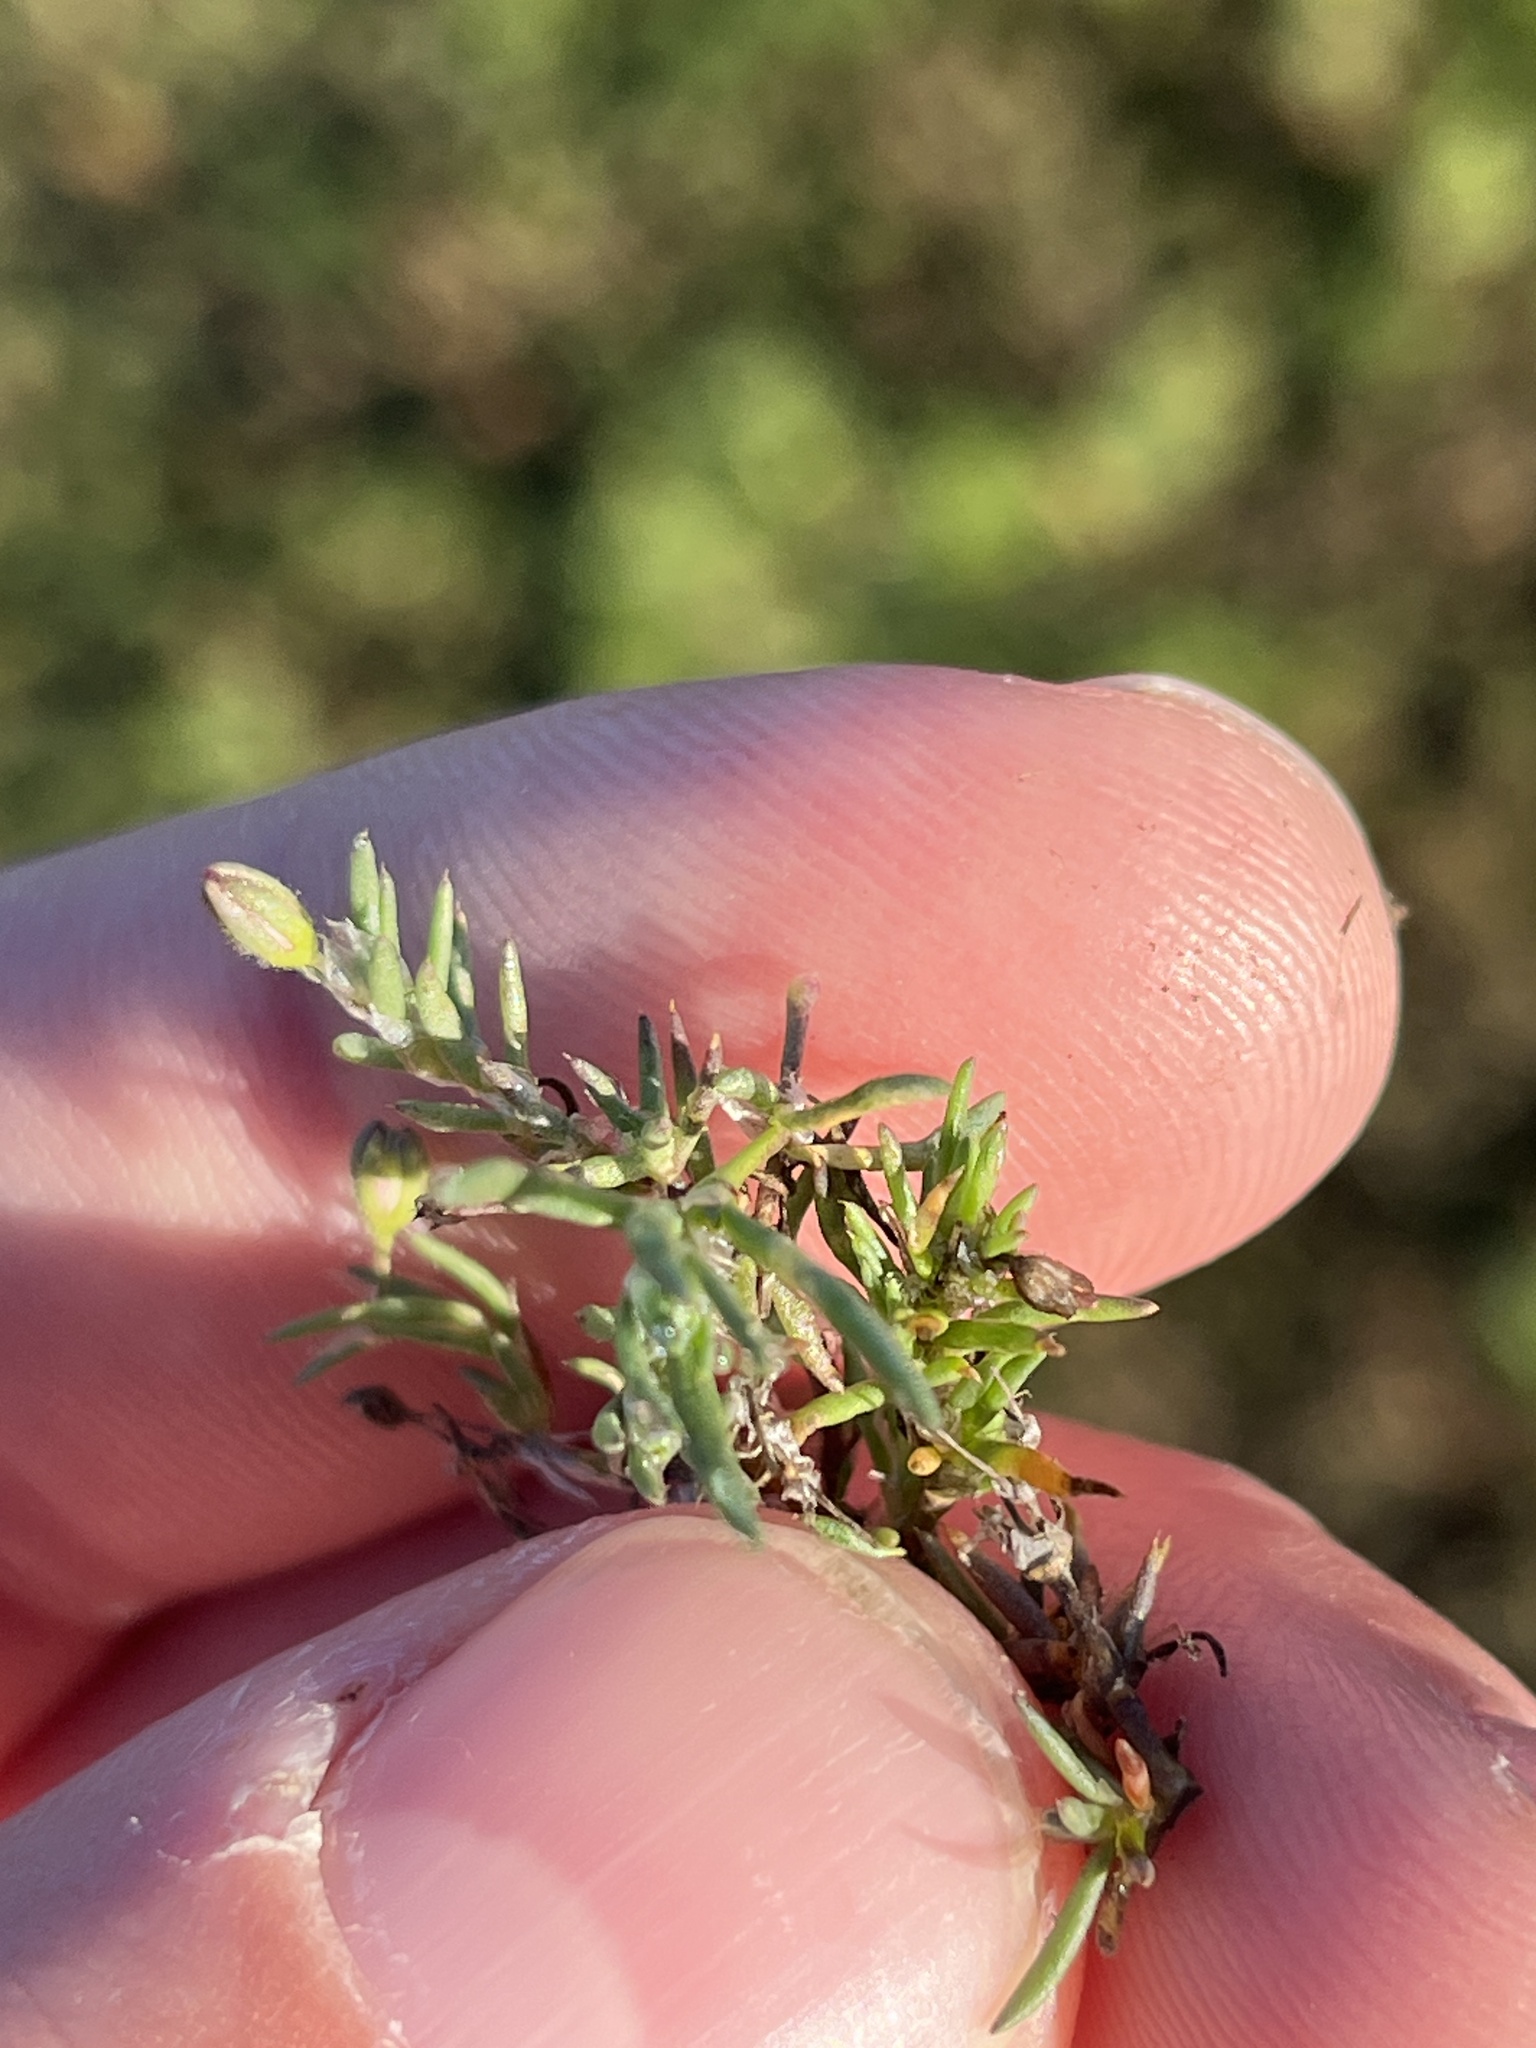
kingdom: Plantae
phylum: Tracheophyta
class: Magnoliopsida
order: Caryophyllales
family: Caryophyllaceae
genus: Spergularia
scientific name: Spergularia rubra
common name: Red sand-spurrey
